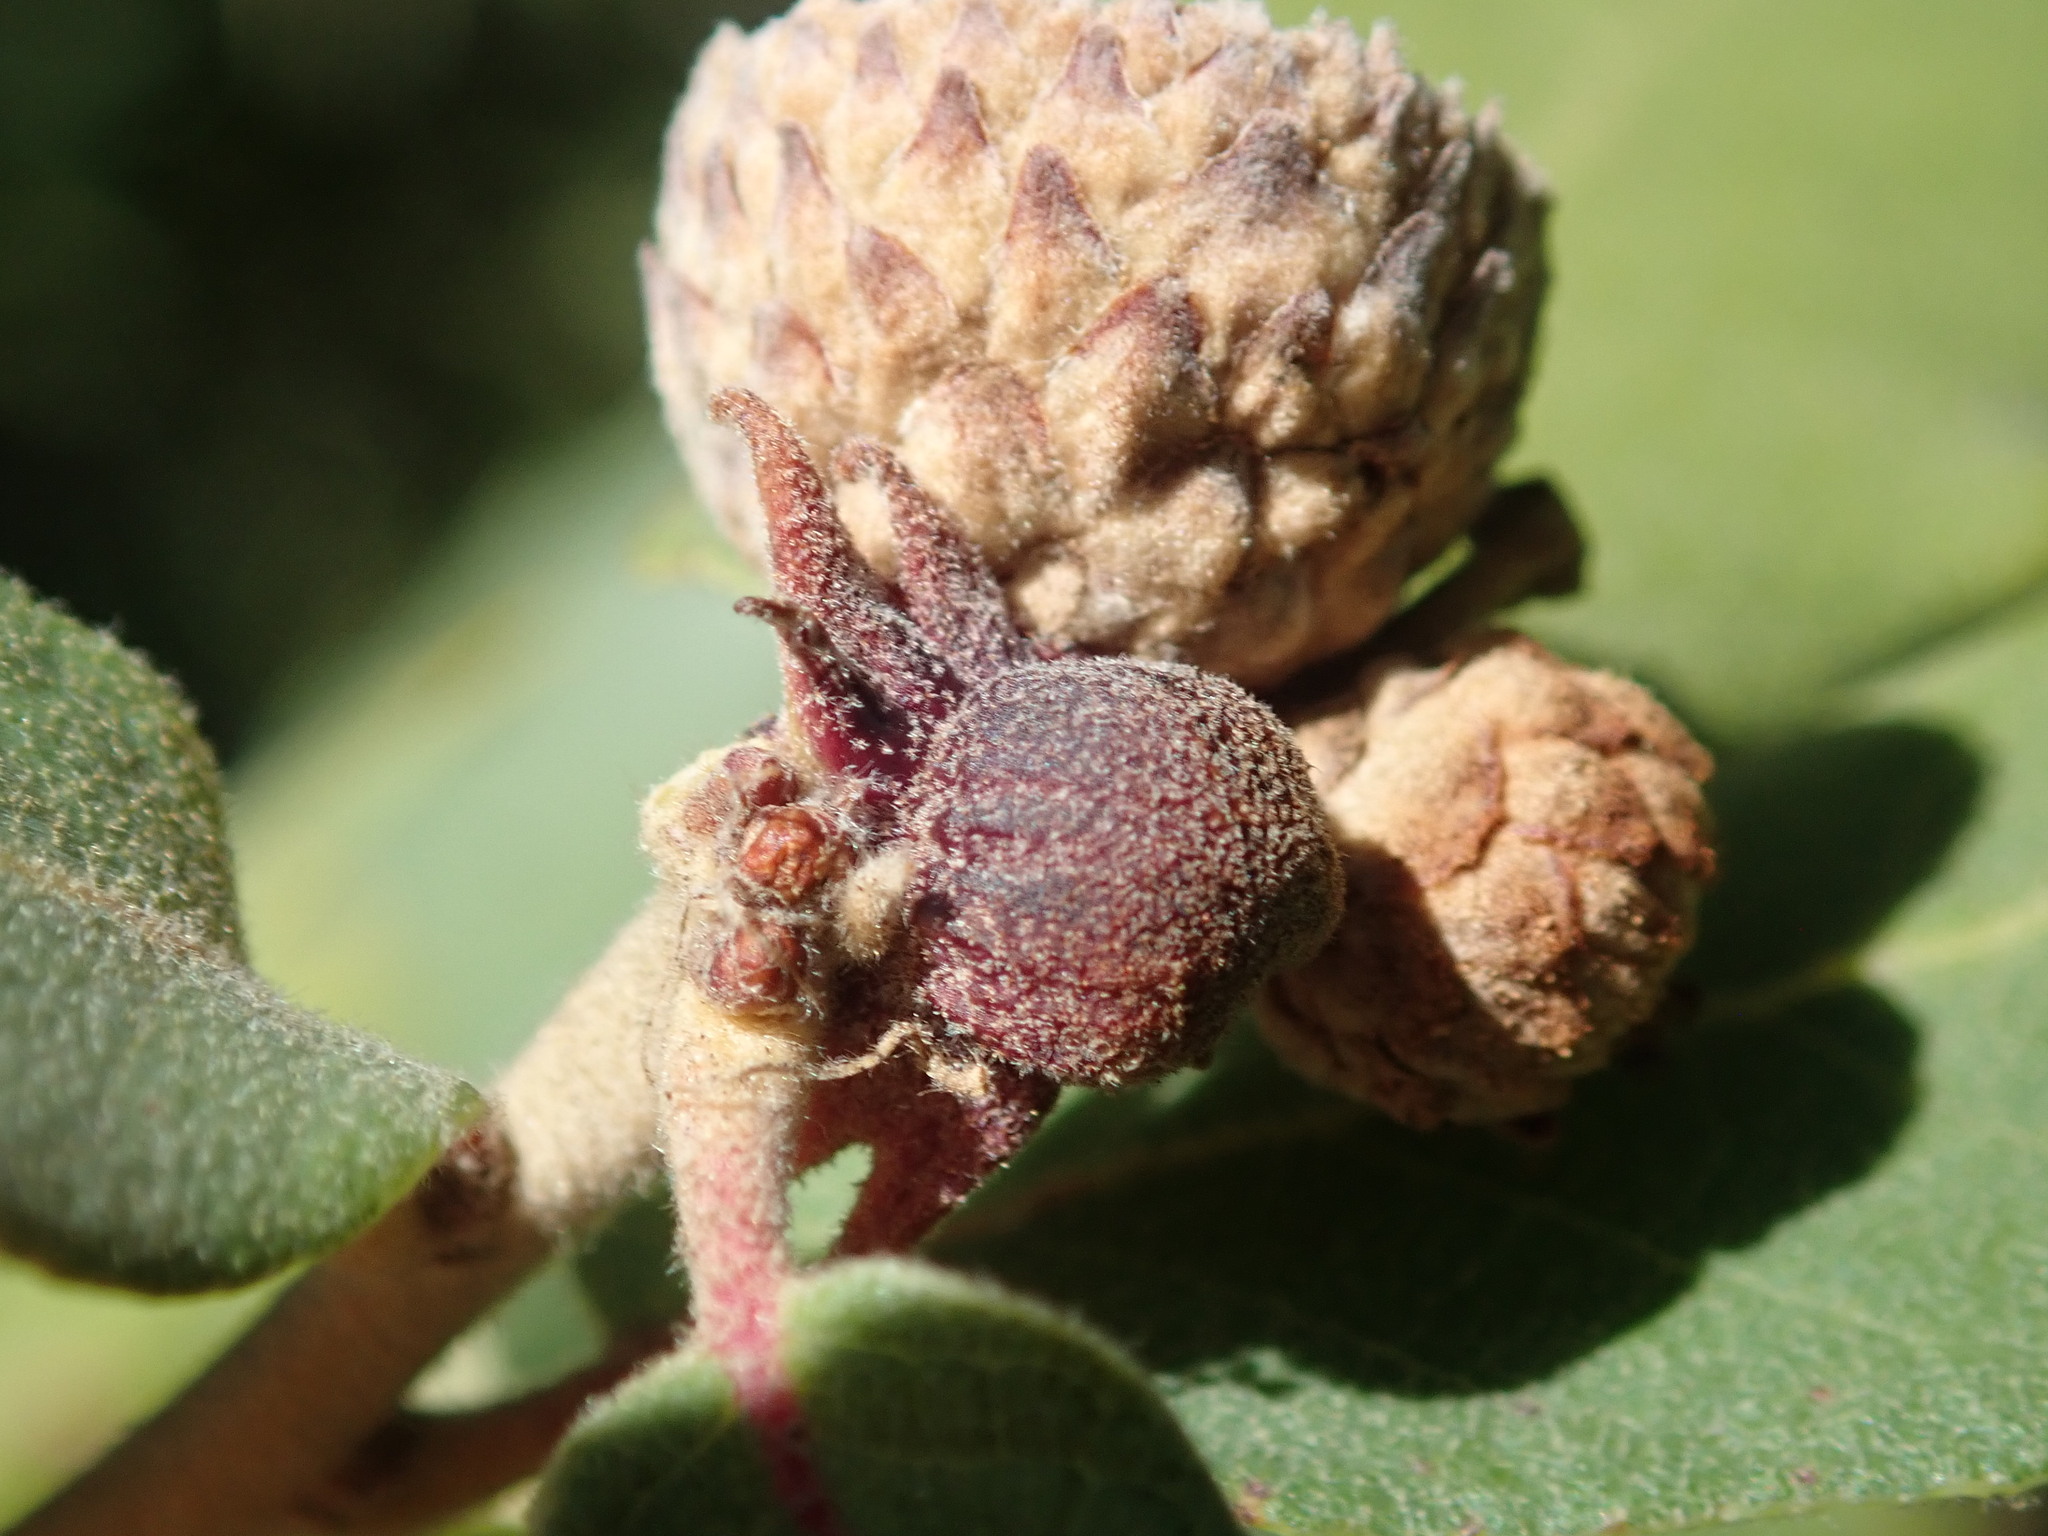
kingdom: Animalia
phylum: Arthropoda
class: Insecta
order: Hymenoptera
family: Cynipidae
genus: Disholcaspis
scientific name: Disholcaspis
